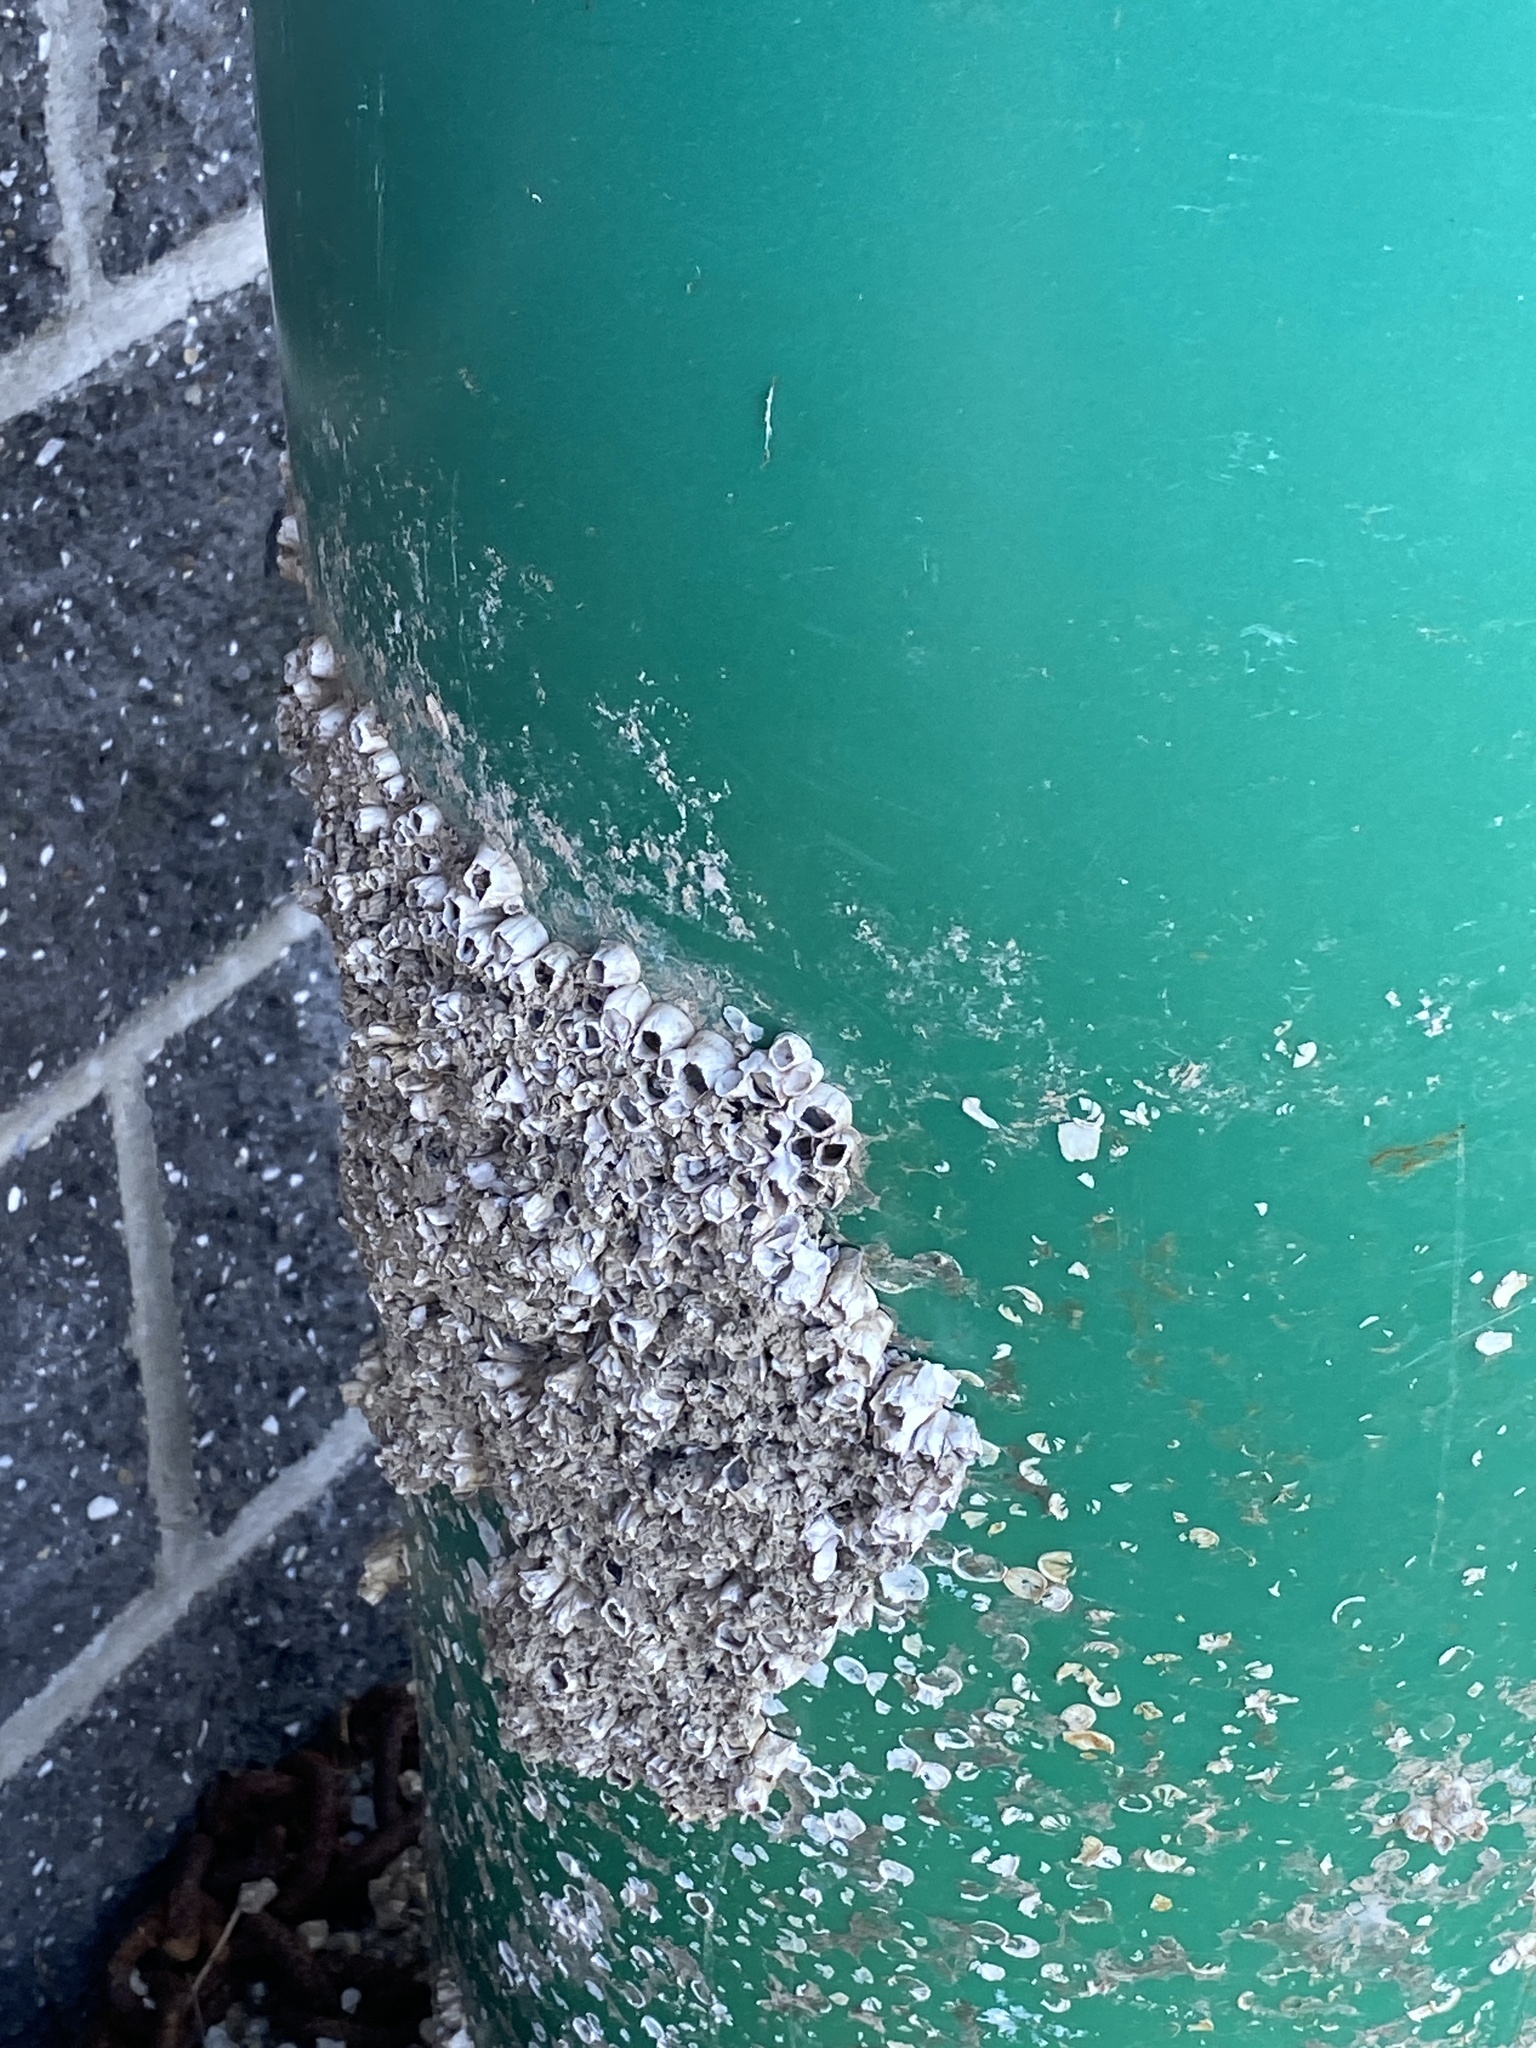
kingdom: Animalia
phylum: Arthropoda
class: Maxillopoda
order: Sessilia
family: Balanidae
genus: Amphibalanus
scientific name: Amphibalanus eburneus
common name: Ivory barnacle
